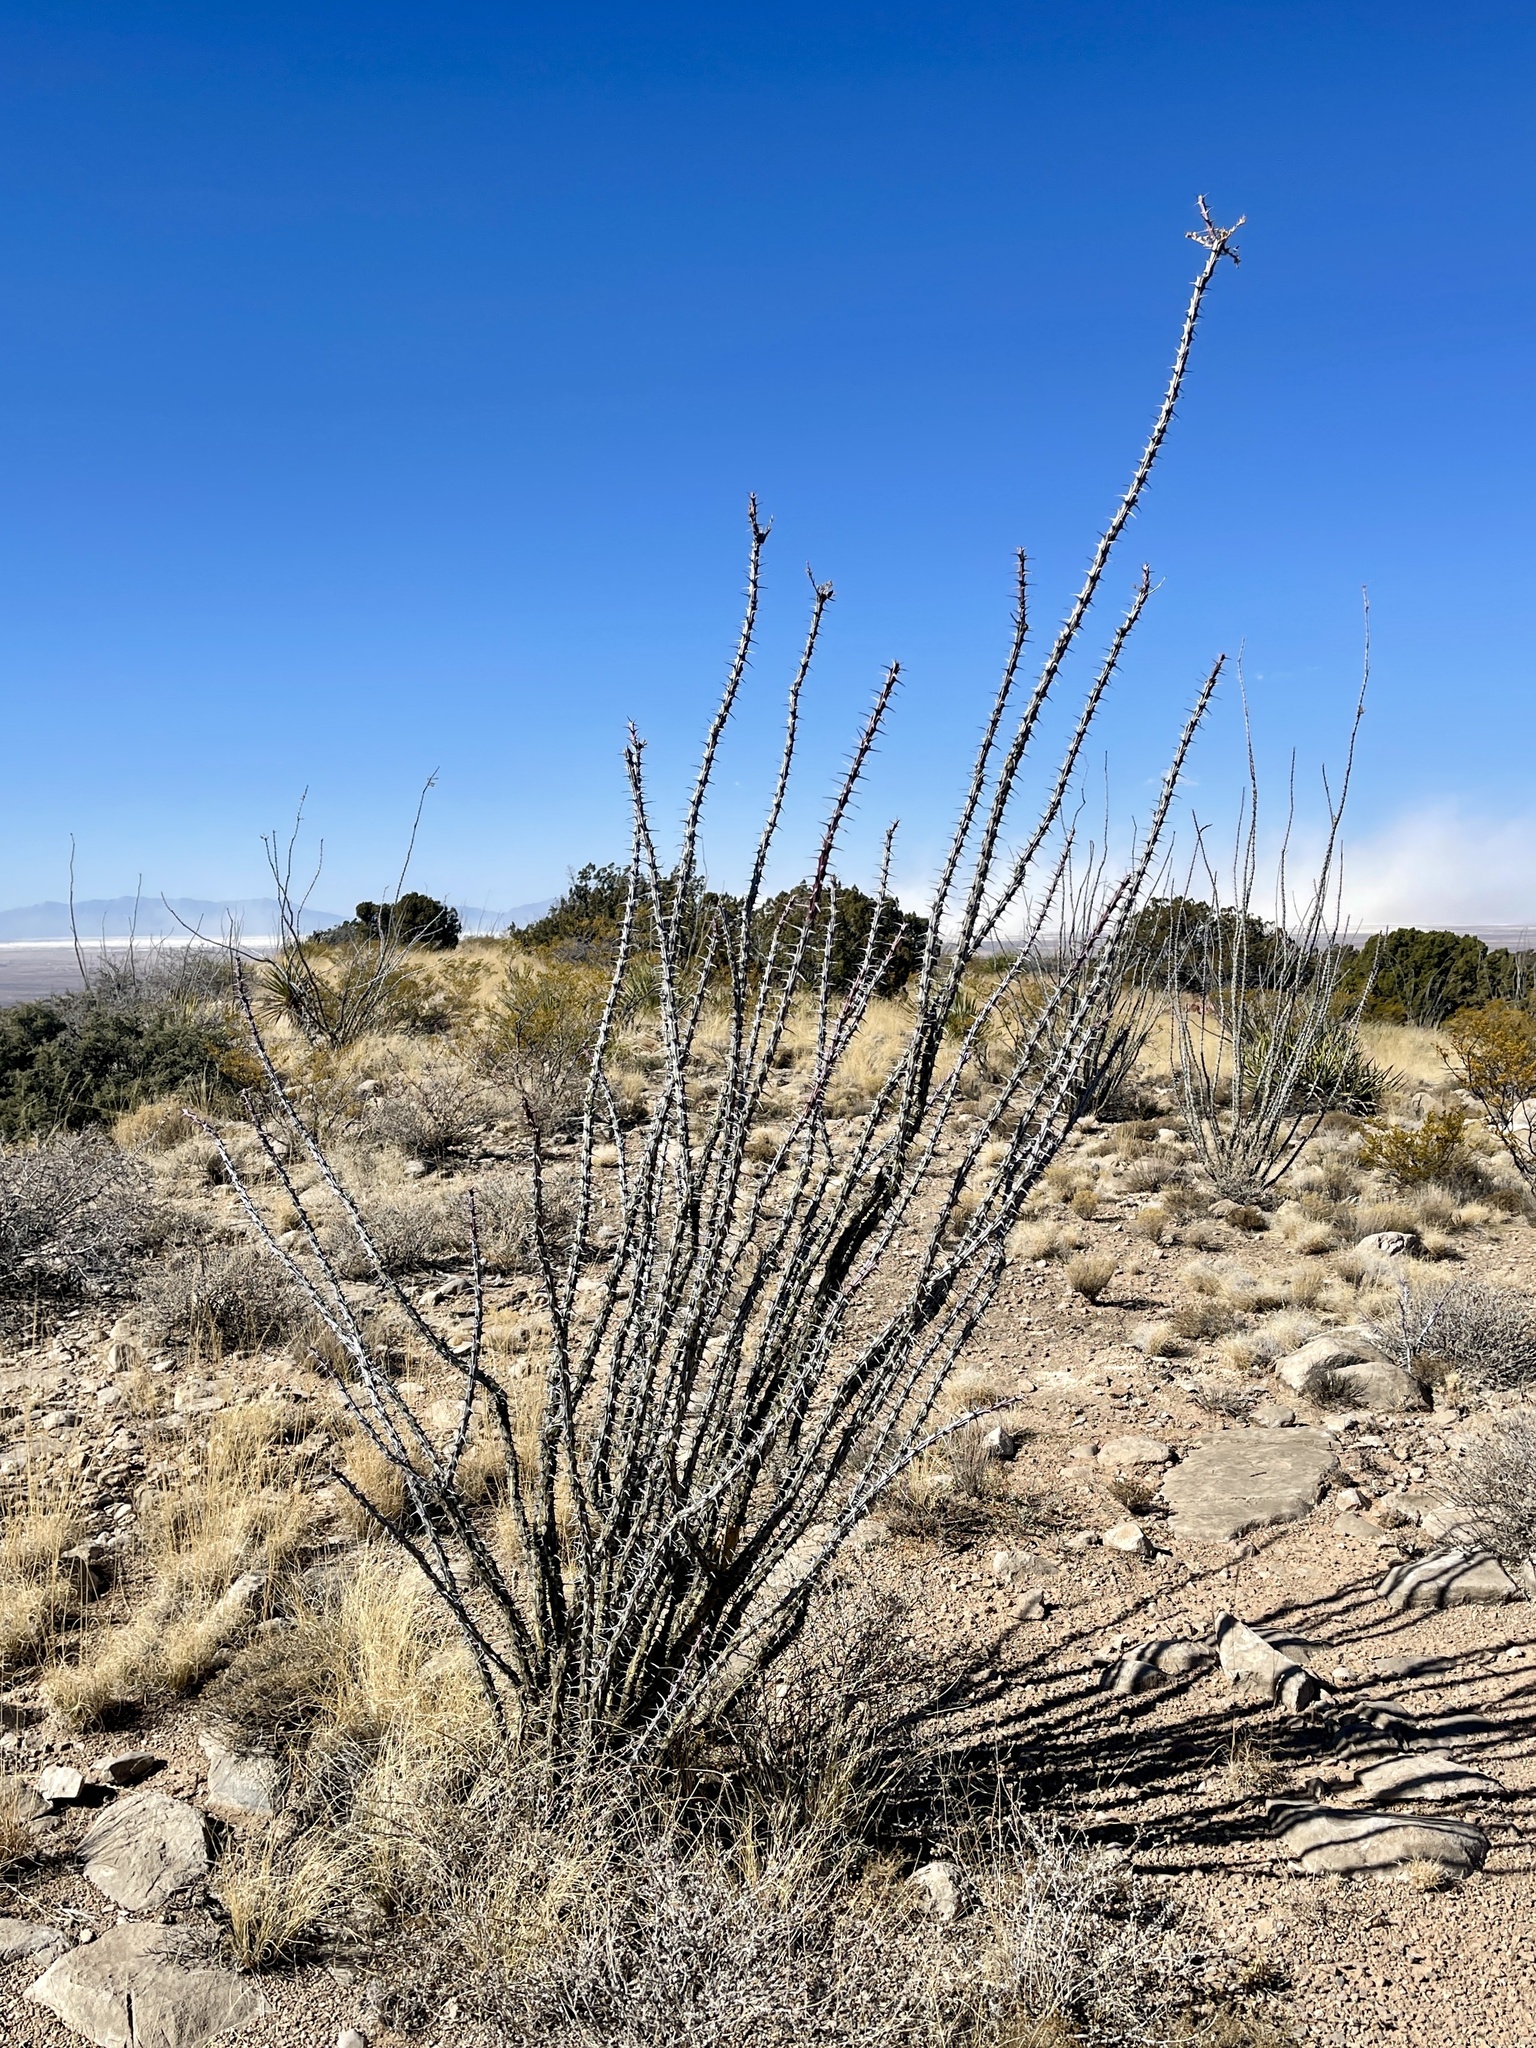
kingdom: Plantae
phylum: Tracheophyta
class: Magnoliopsida
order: Ericales
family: Fouquieriaceae
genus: Fouquieria
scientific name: Fouquieria splendens
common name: Vine-cactus
